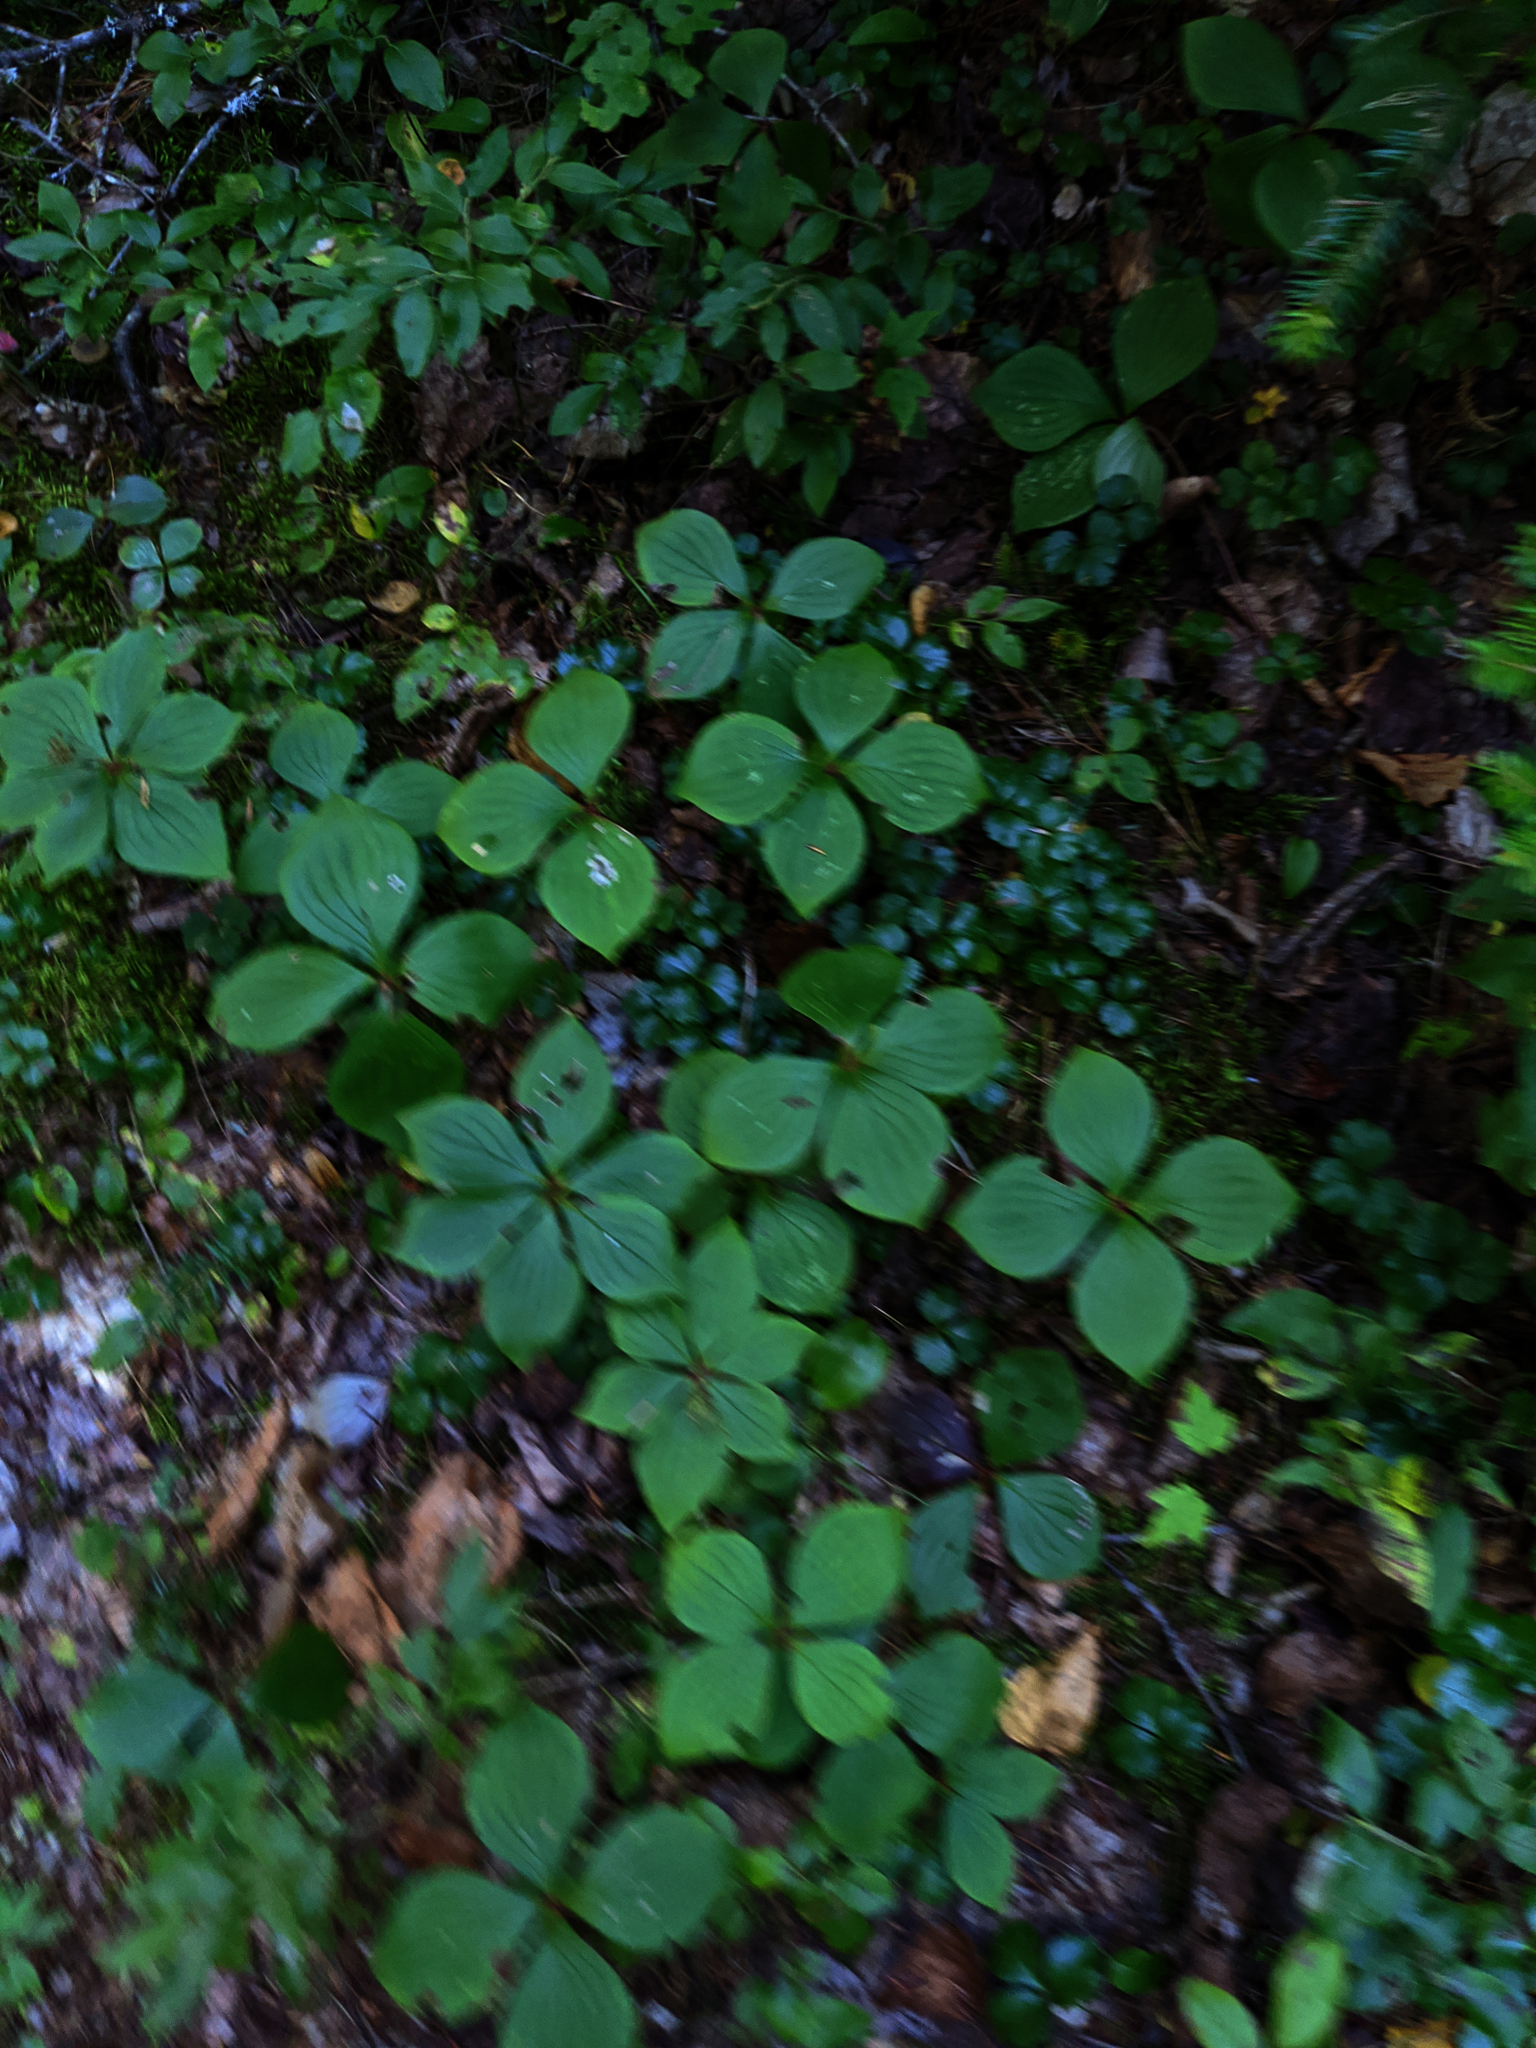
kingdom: Plantae
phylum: Tracheophyta
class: Magnoliopsida
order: Cornales
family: Cornaceae
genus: Cornus
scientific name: Cornus canadensis
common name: Creeping dogwood
